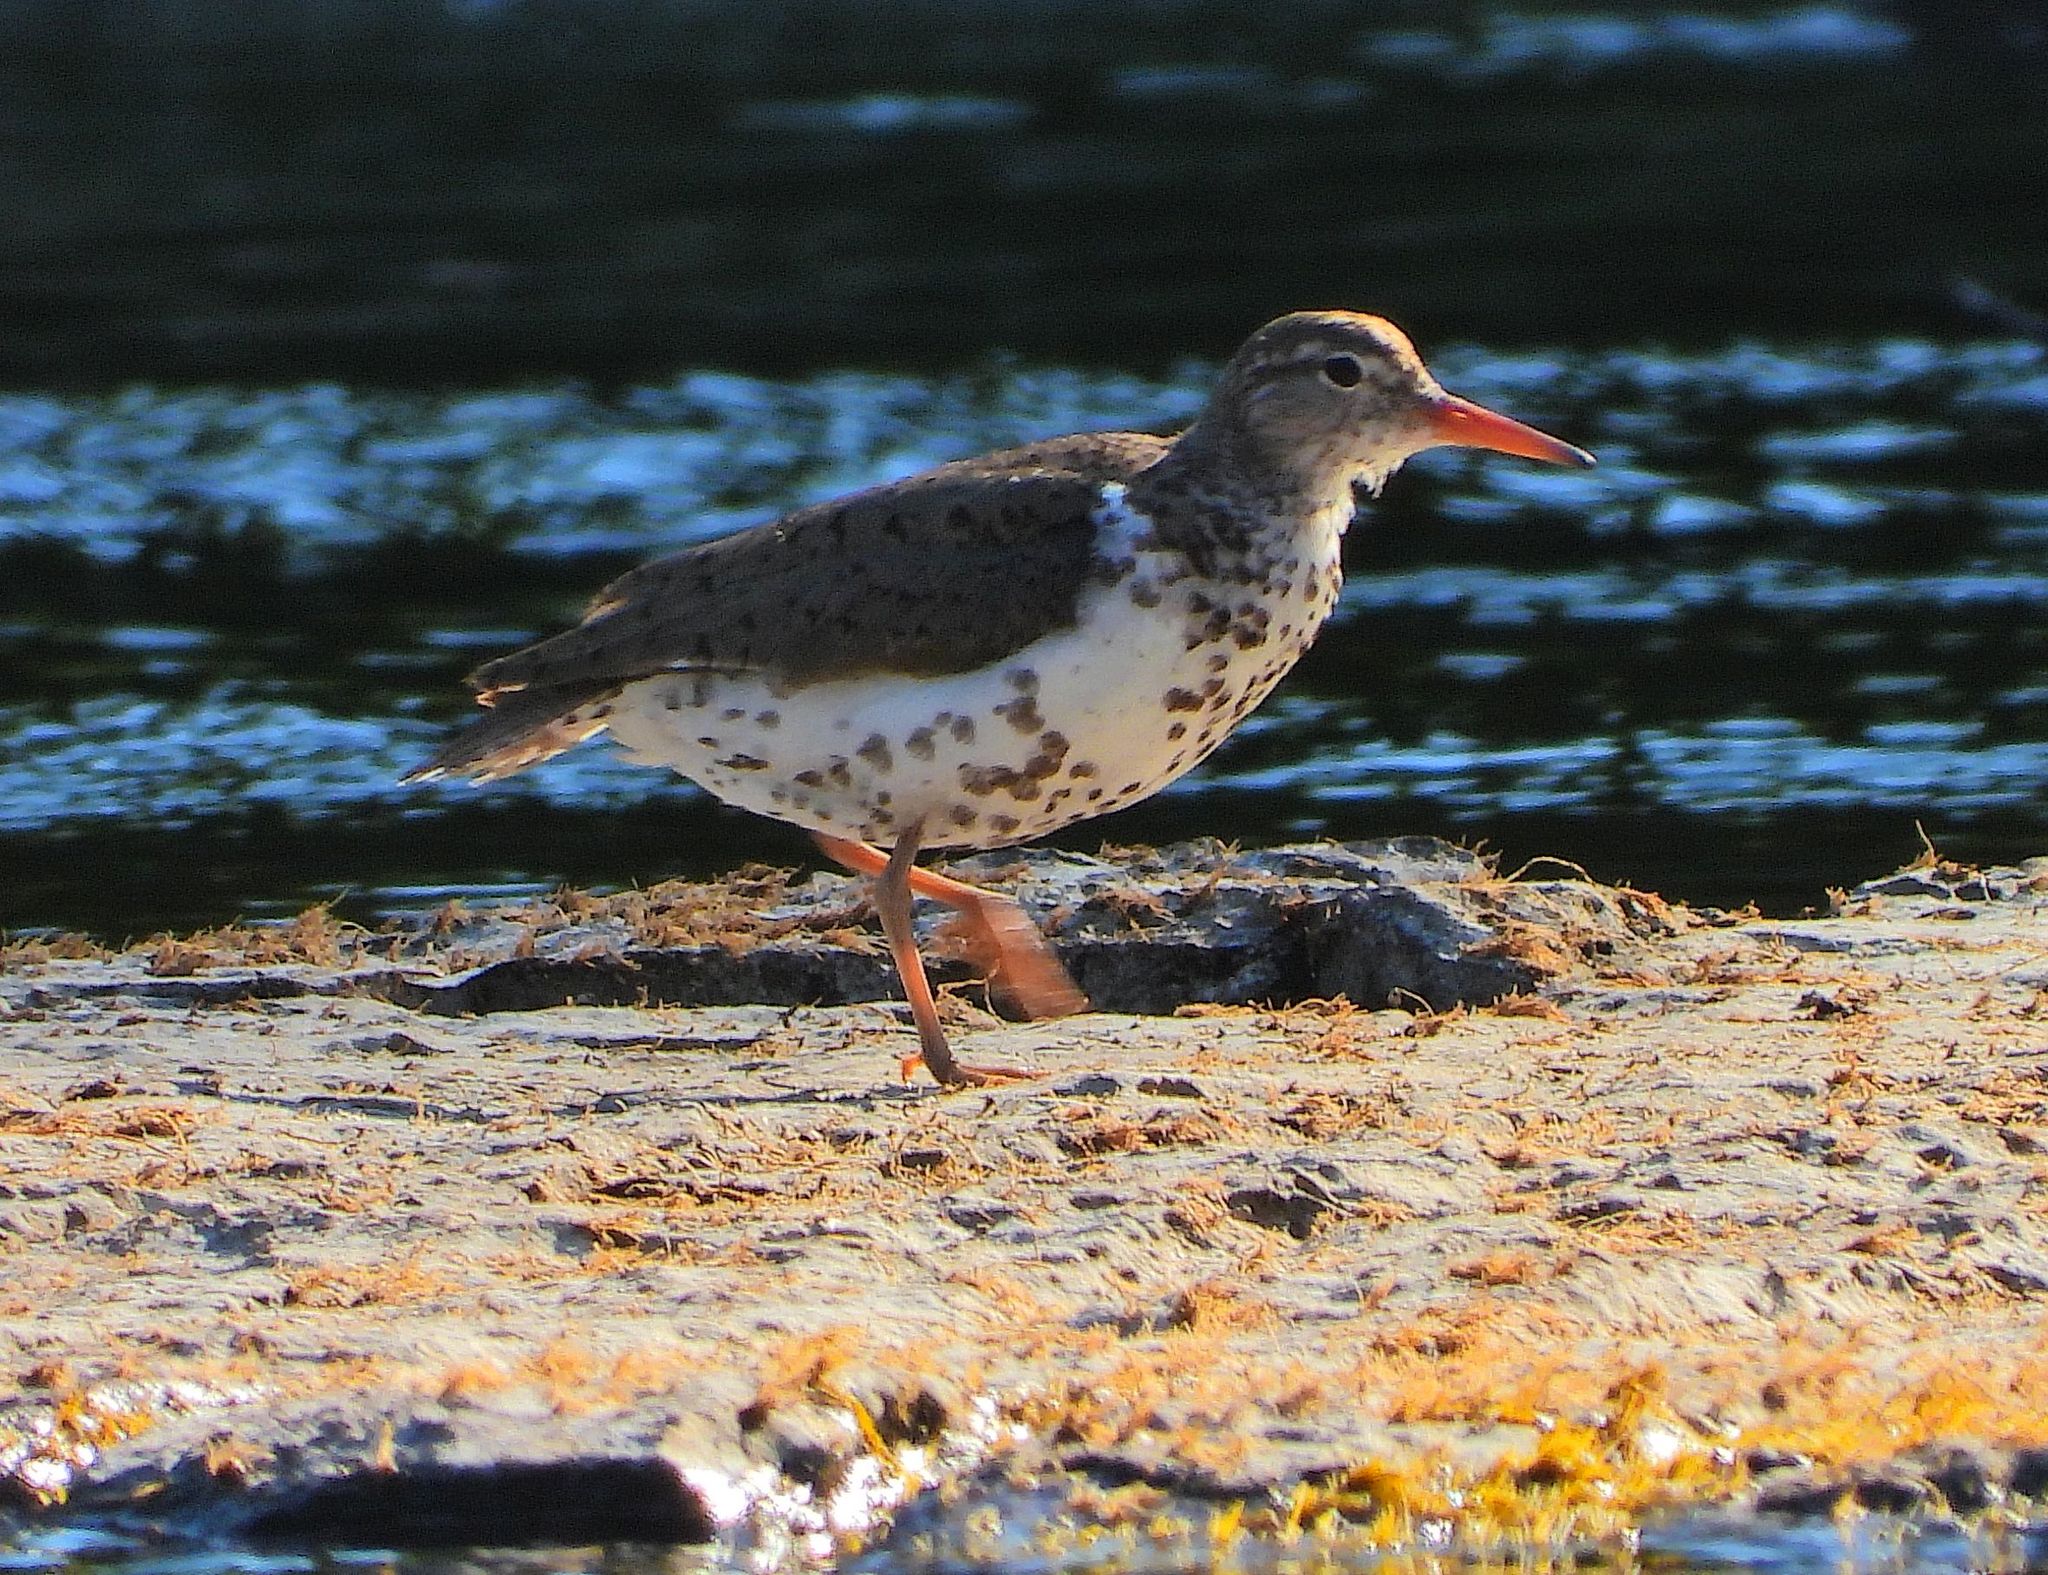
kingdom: Animalia
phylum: Chordata
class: Aves
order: Charadriiformes
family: Scolopacidae
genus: Actitis
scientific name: Actitis macularius
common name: Spotted sandpiper
